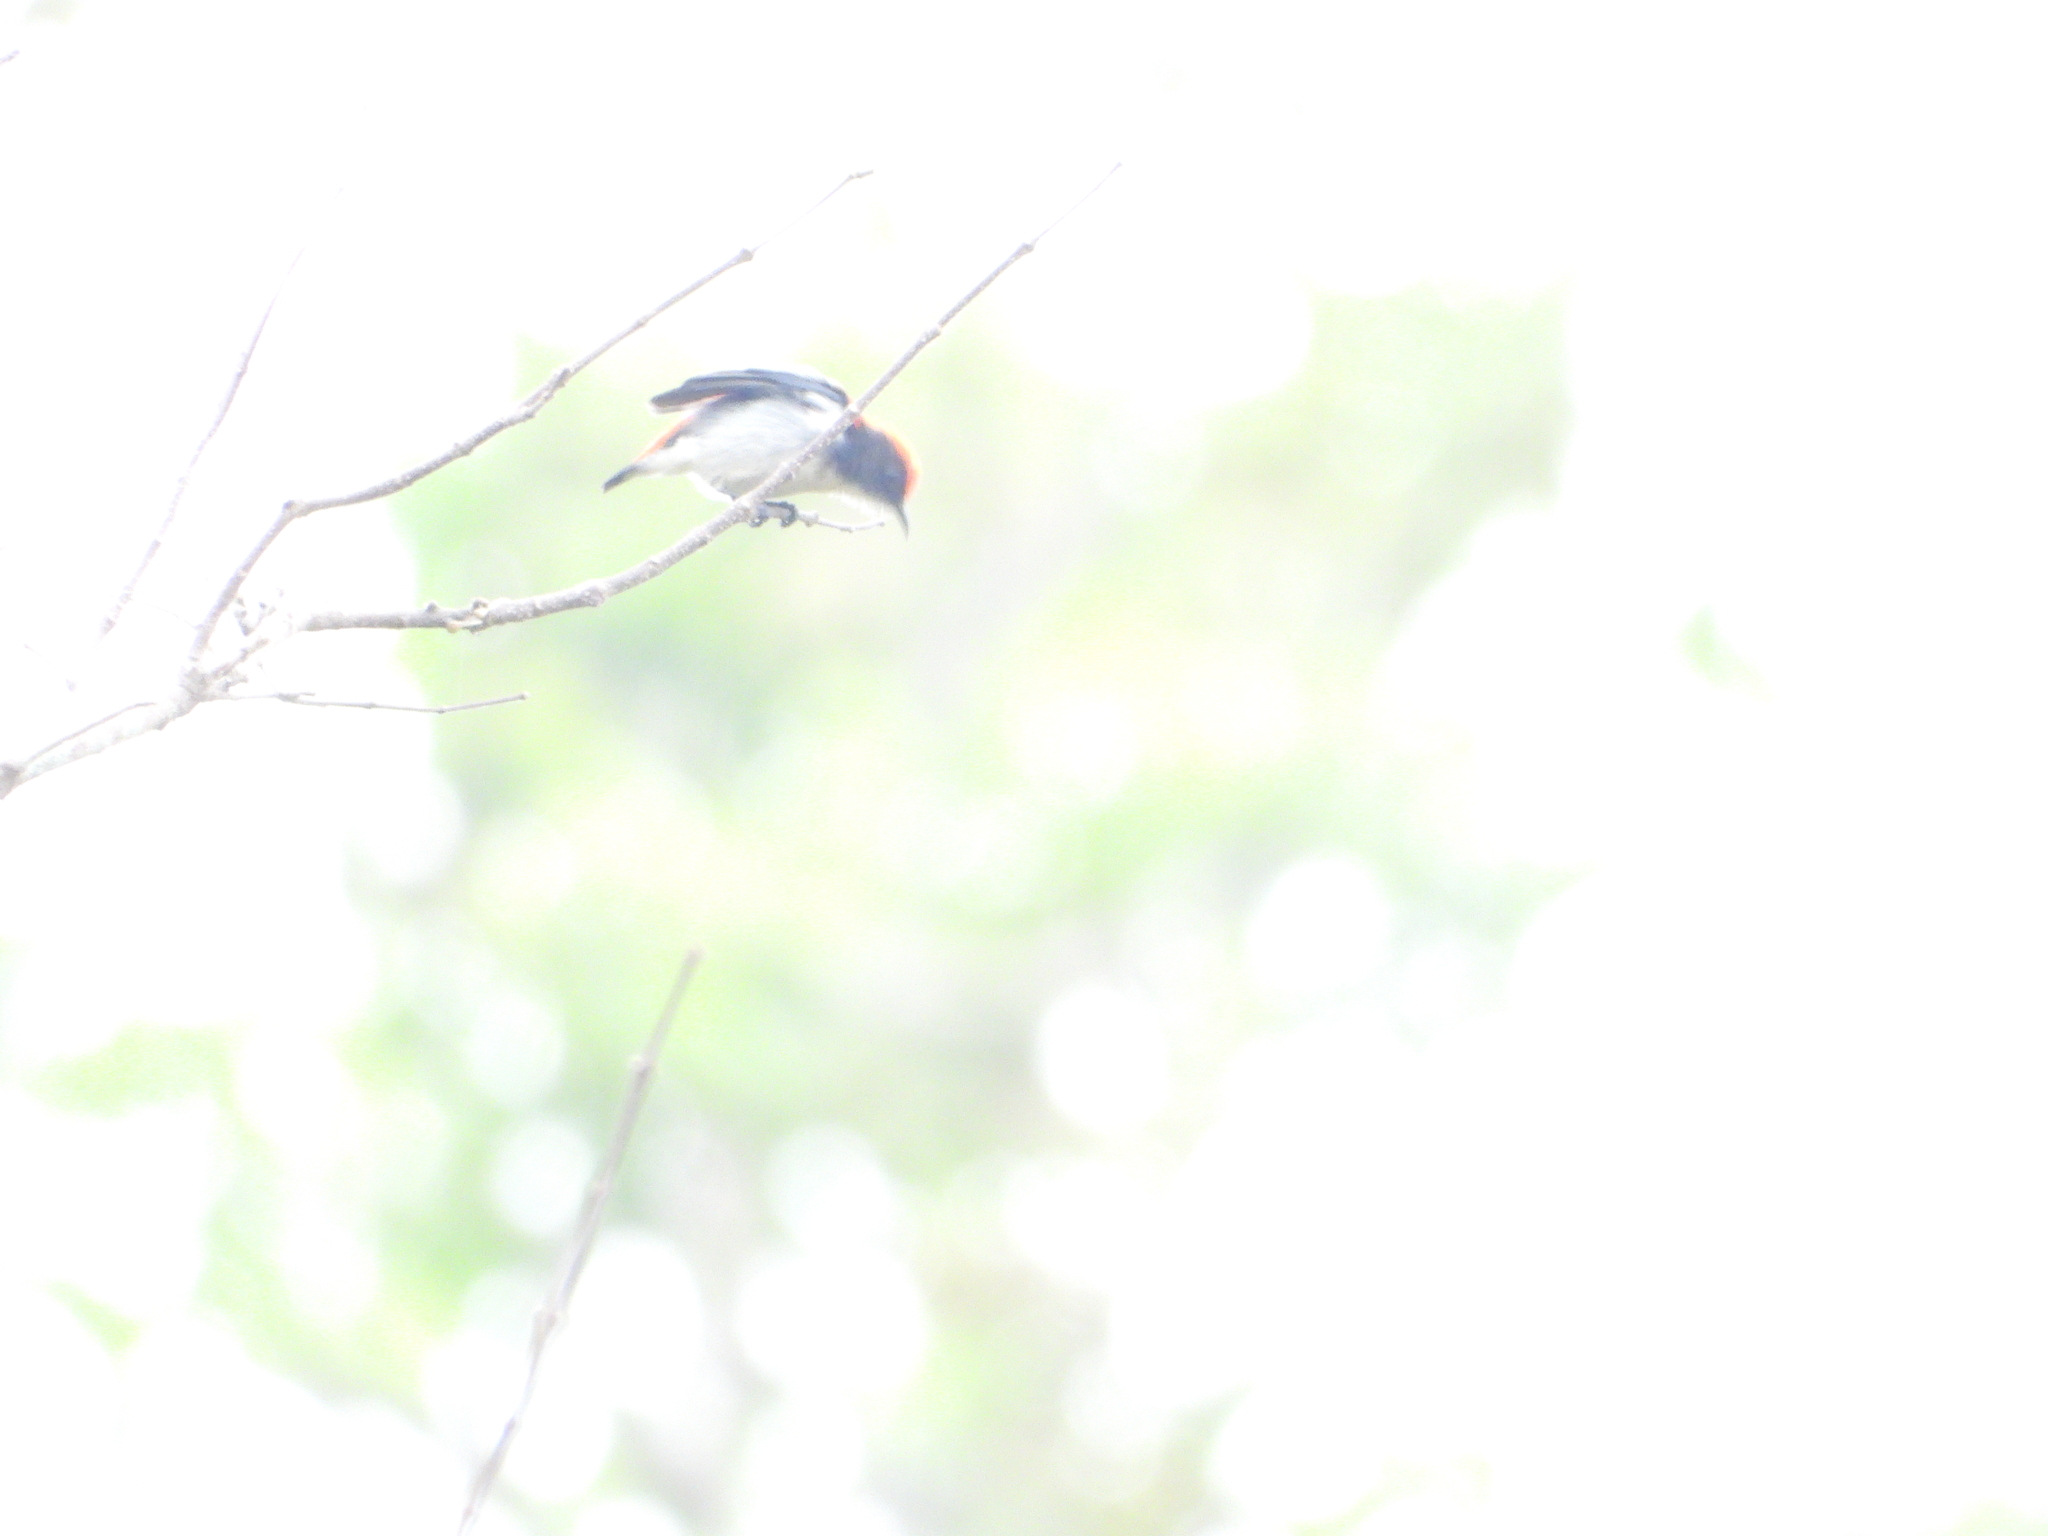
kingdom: Animalia
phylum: Chordata
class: Aves
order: Passeriformes
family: Dicaeidae
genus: Dicaeum
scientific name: Dicaeum cruentatum
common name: Scarlet-backed flowerpecker
